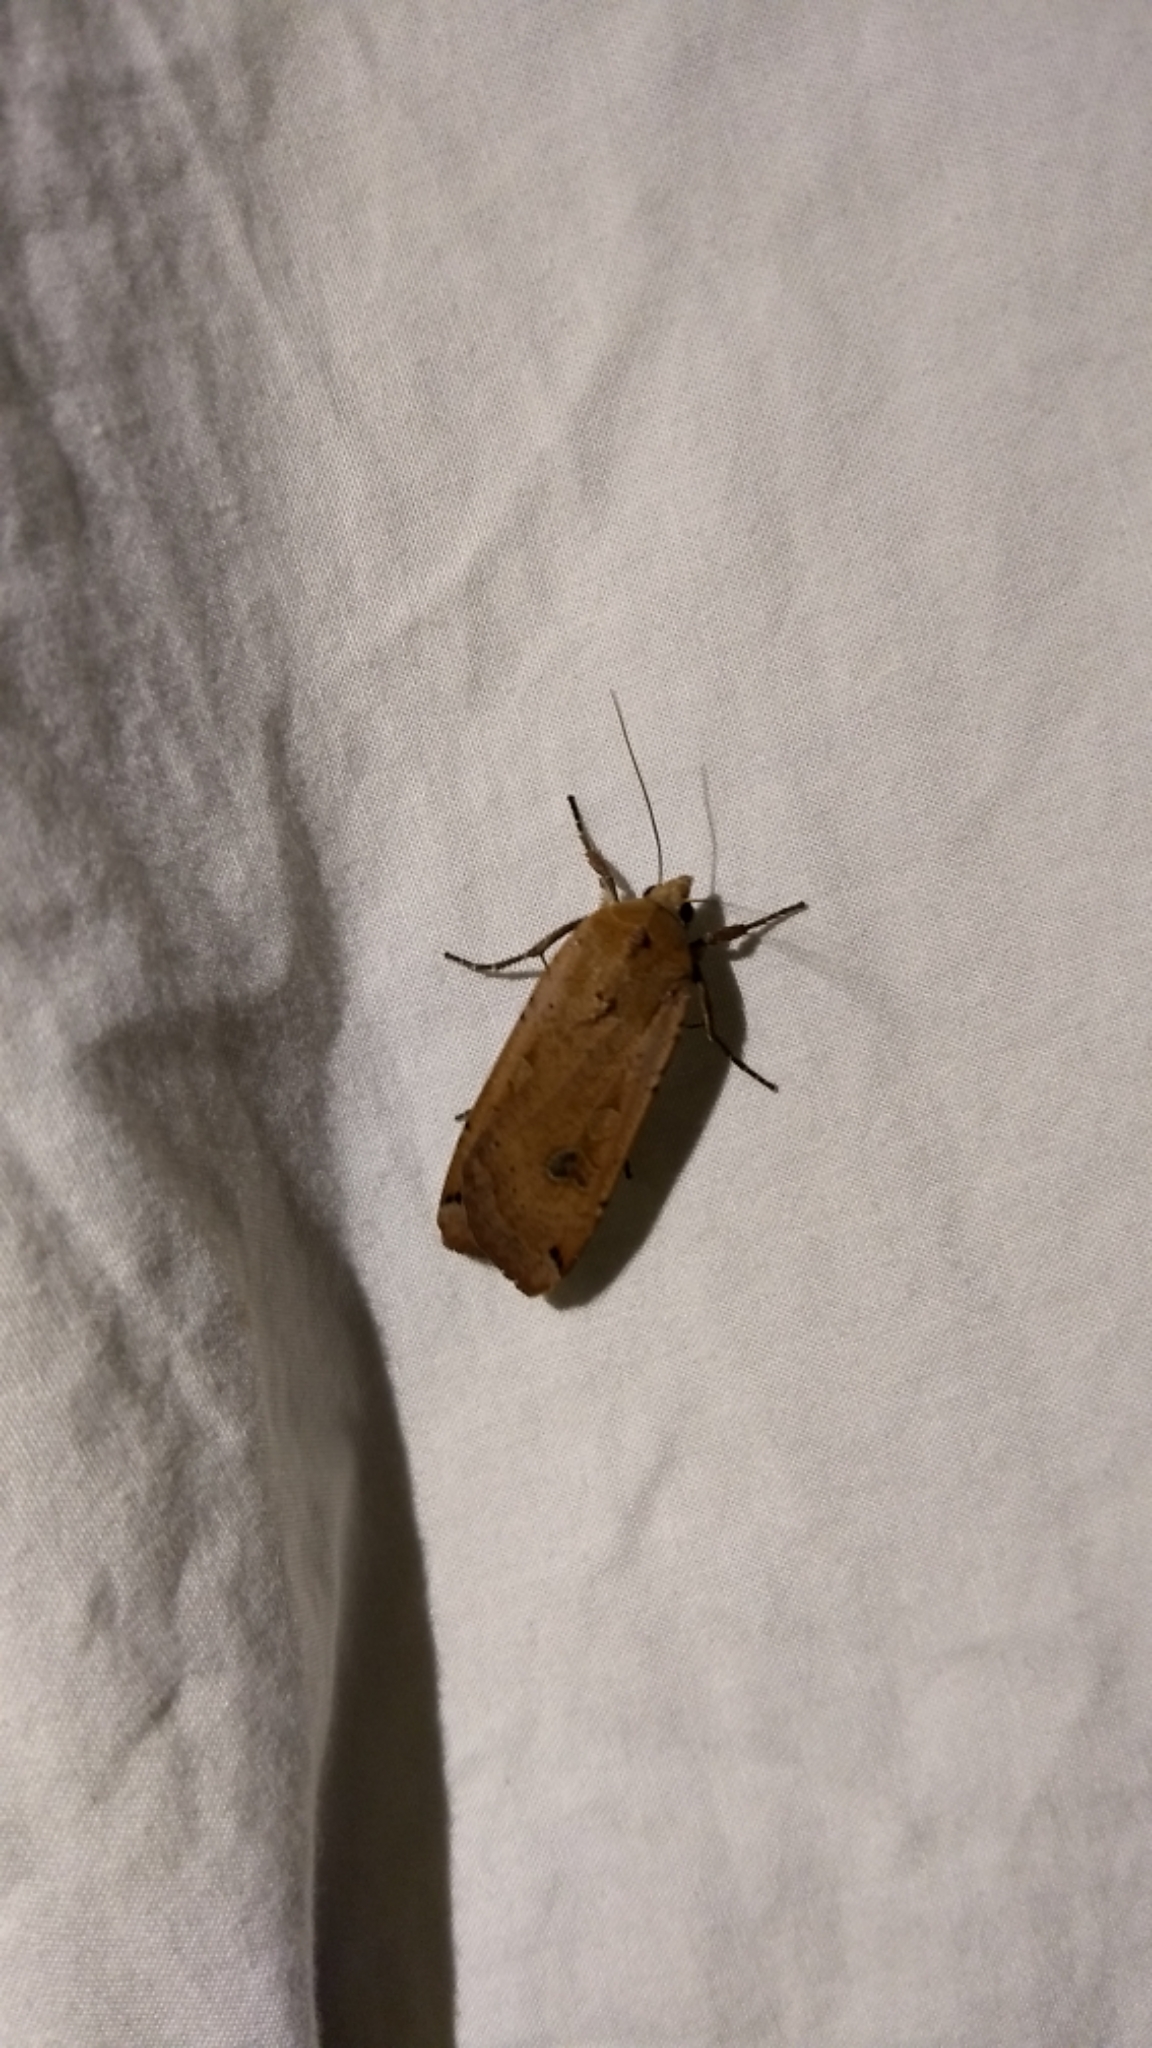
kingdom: Animalia
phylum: Arthropoda
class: Insecta
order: Lepidoptera
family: Noctuidae
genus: Noctua
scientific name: Noctua pronuba
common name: Large yellow underwing
